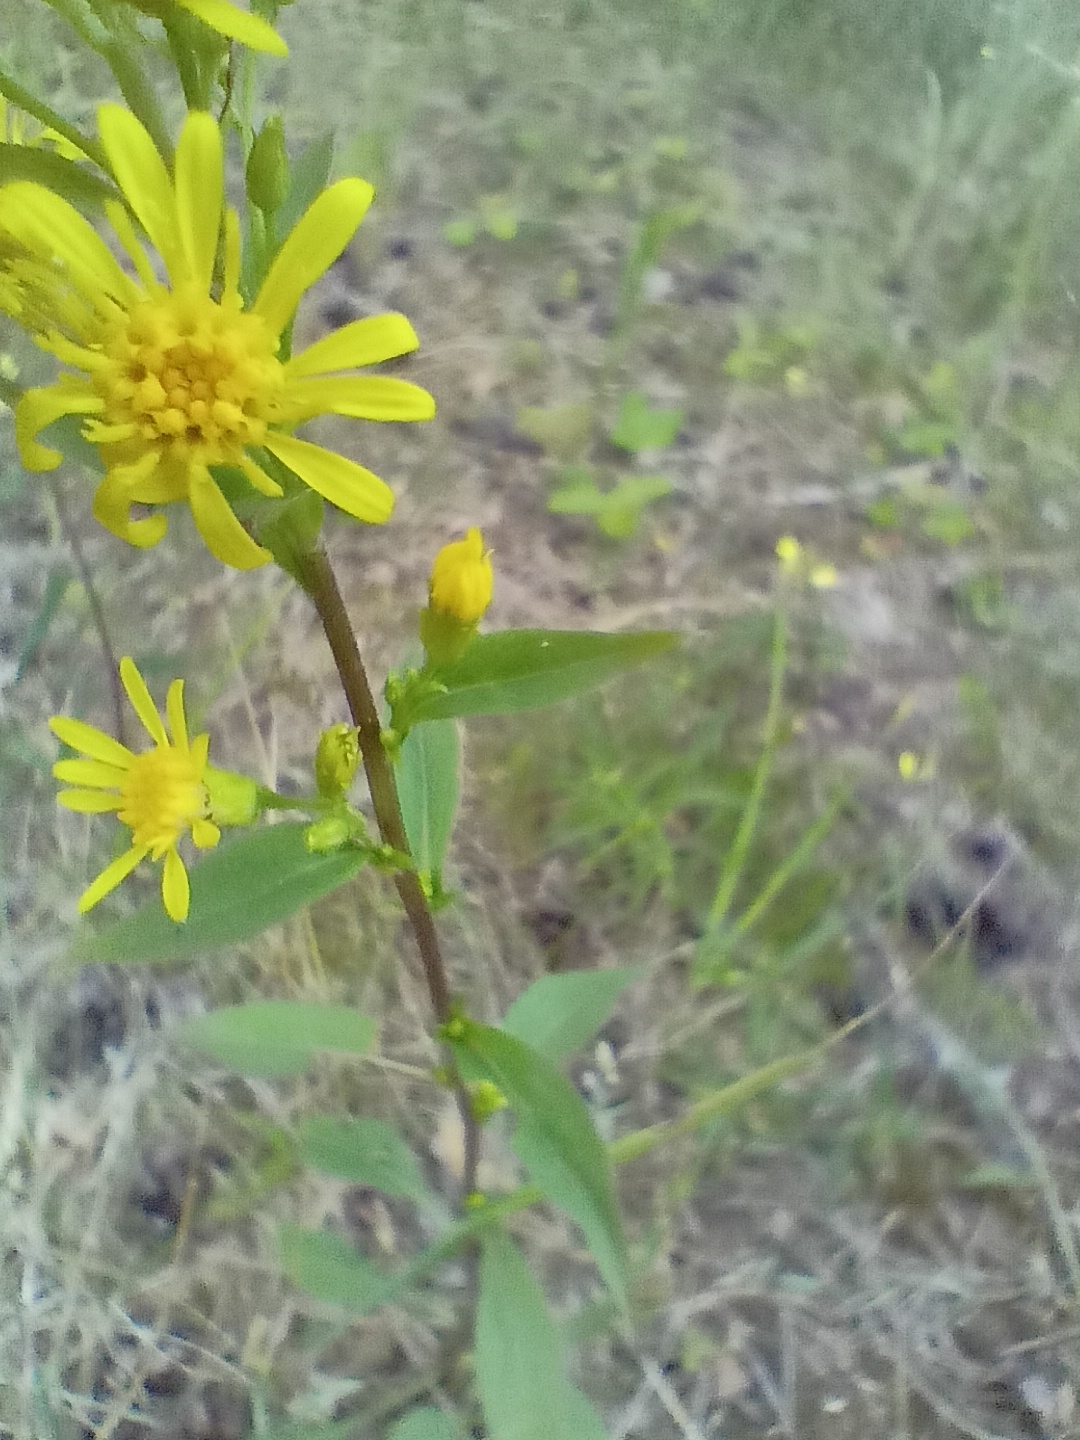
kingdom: Plantae
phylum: Tracheophyta
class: Magnoliopsida
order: Asterales
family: Asteraceae
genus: Solidago
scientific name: Solidago virgaurea
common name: Goldenrod
